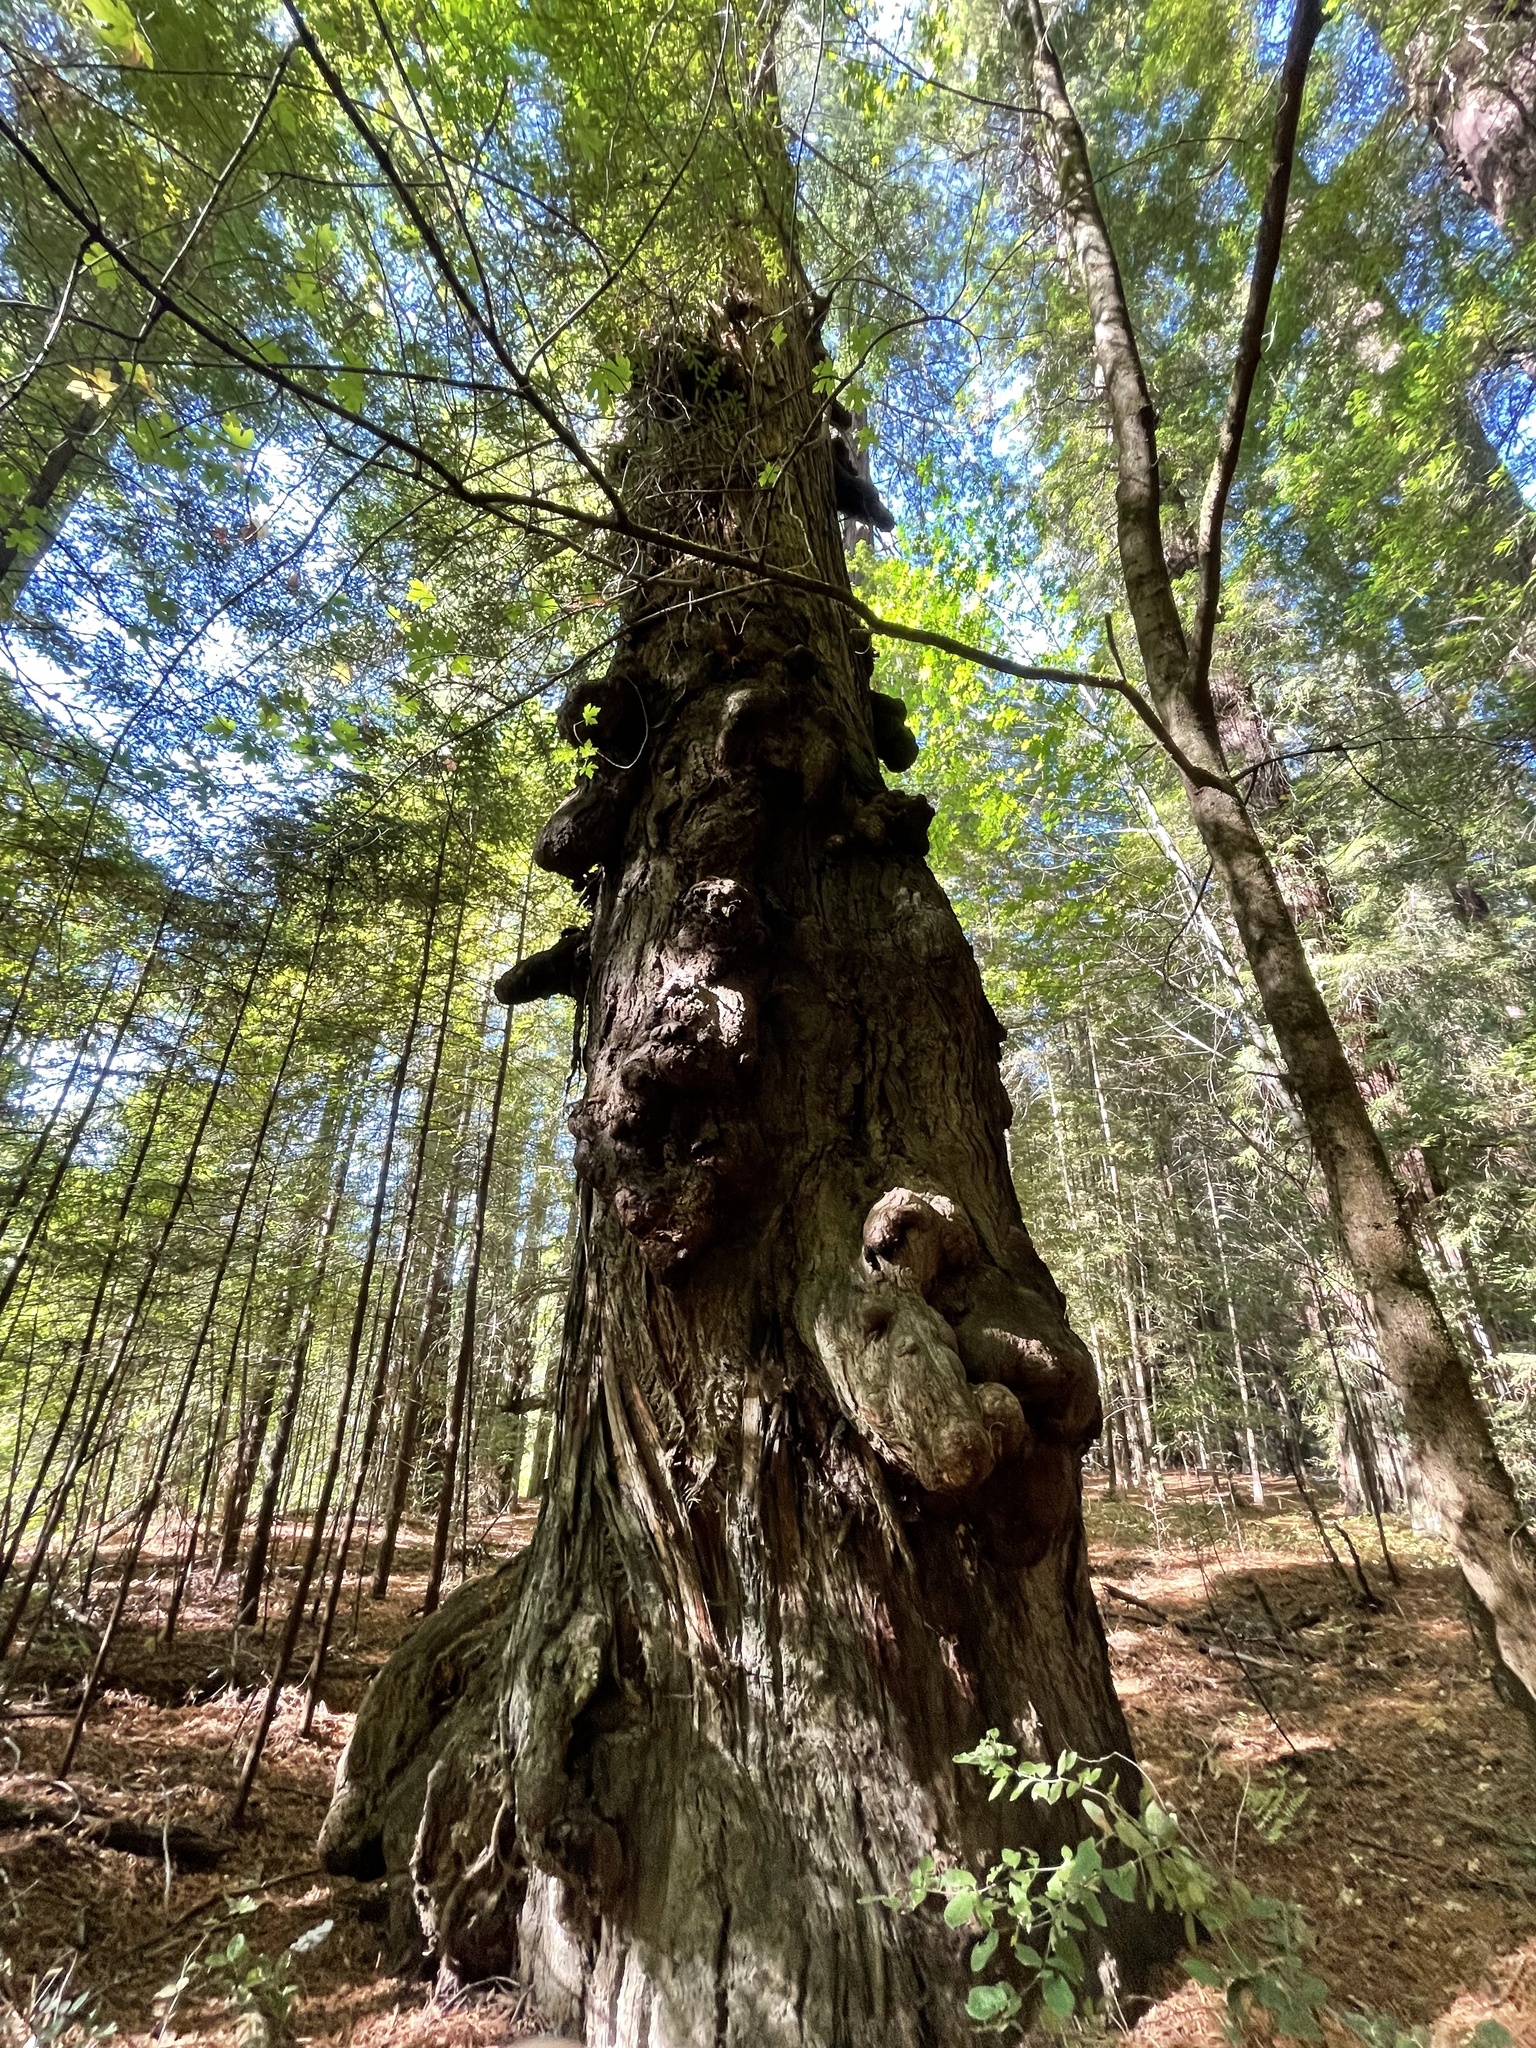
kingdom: Plantae
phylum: Tracheophyta
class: Pinopsida
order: Pinales
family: Cupressaceae
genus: Sequoia
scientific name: Sequoia sempervirens
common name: Coast redwood
